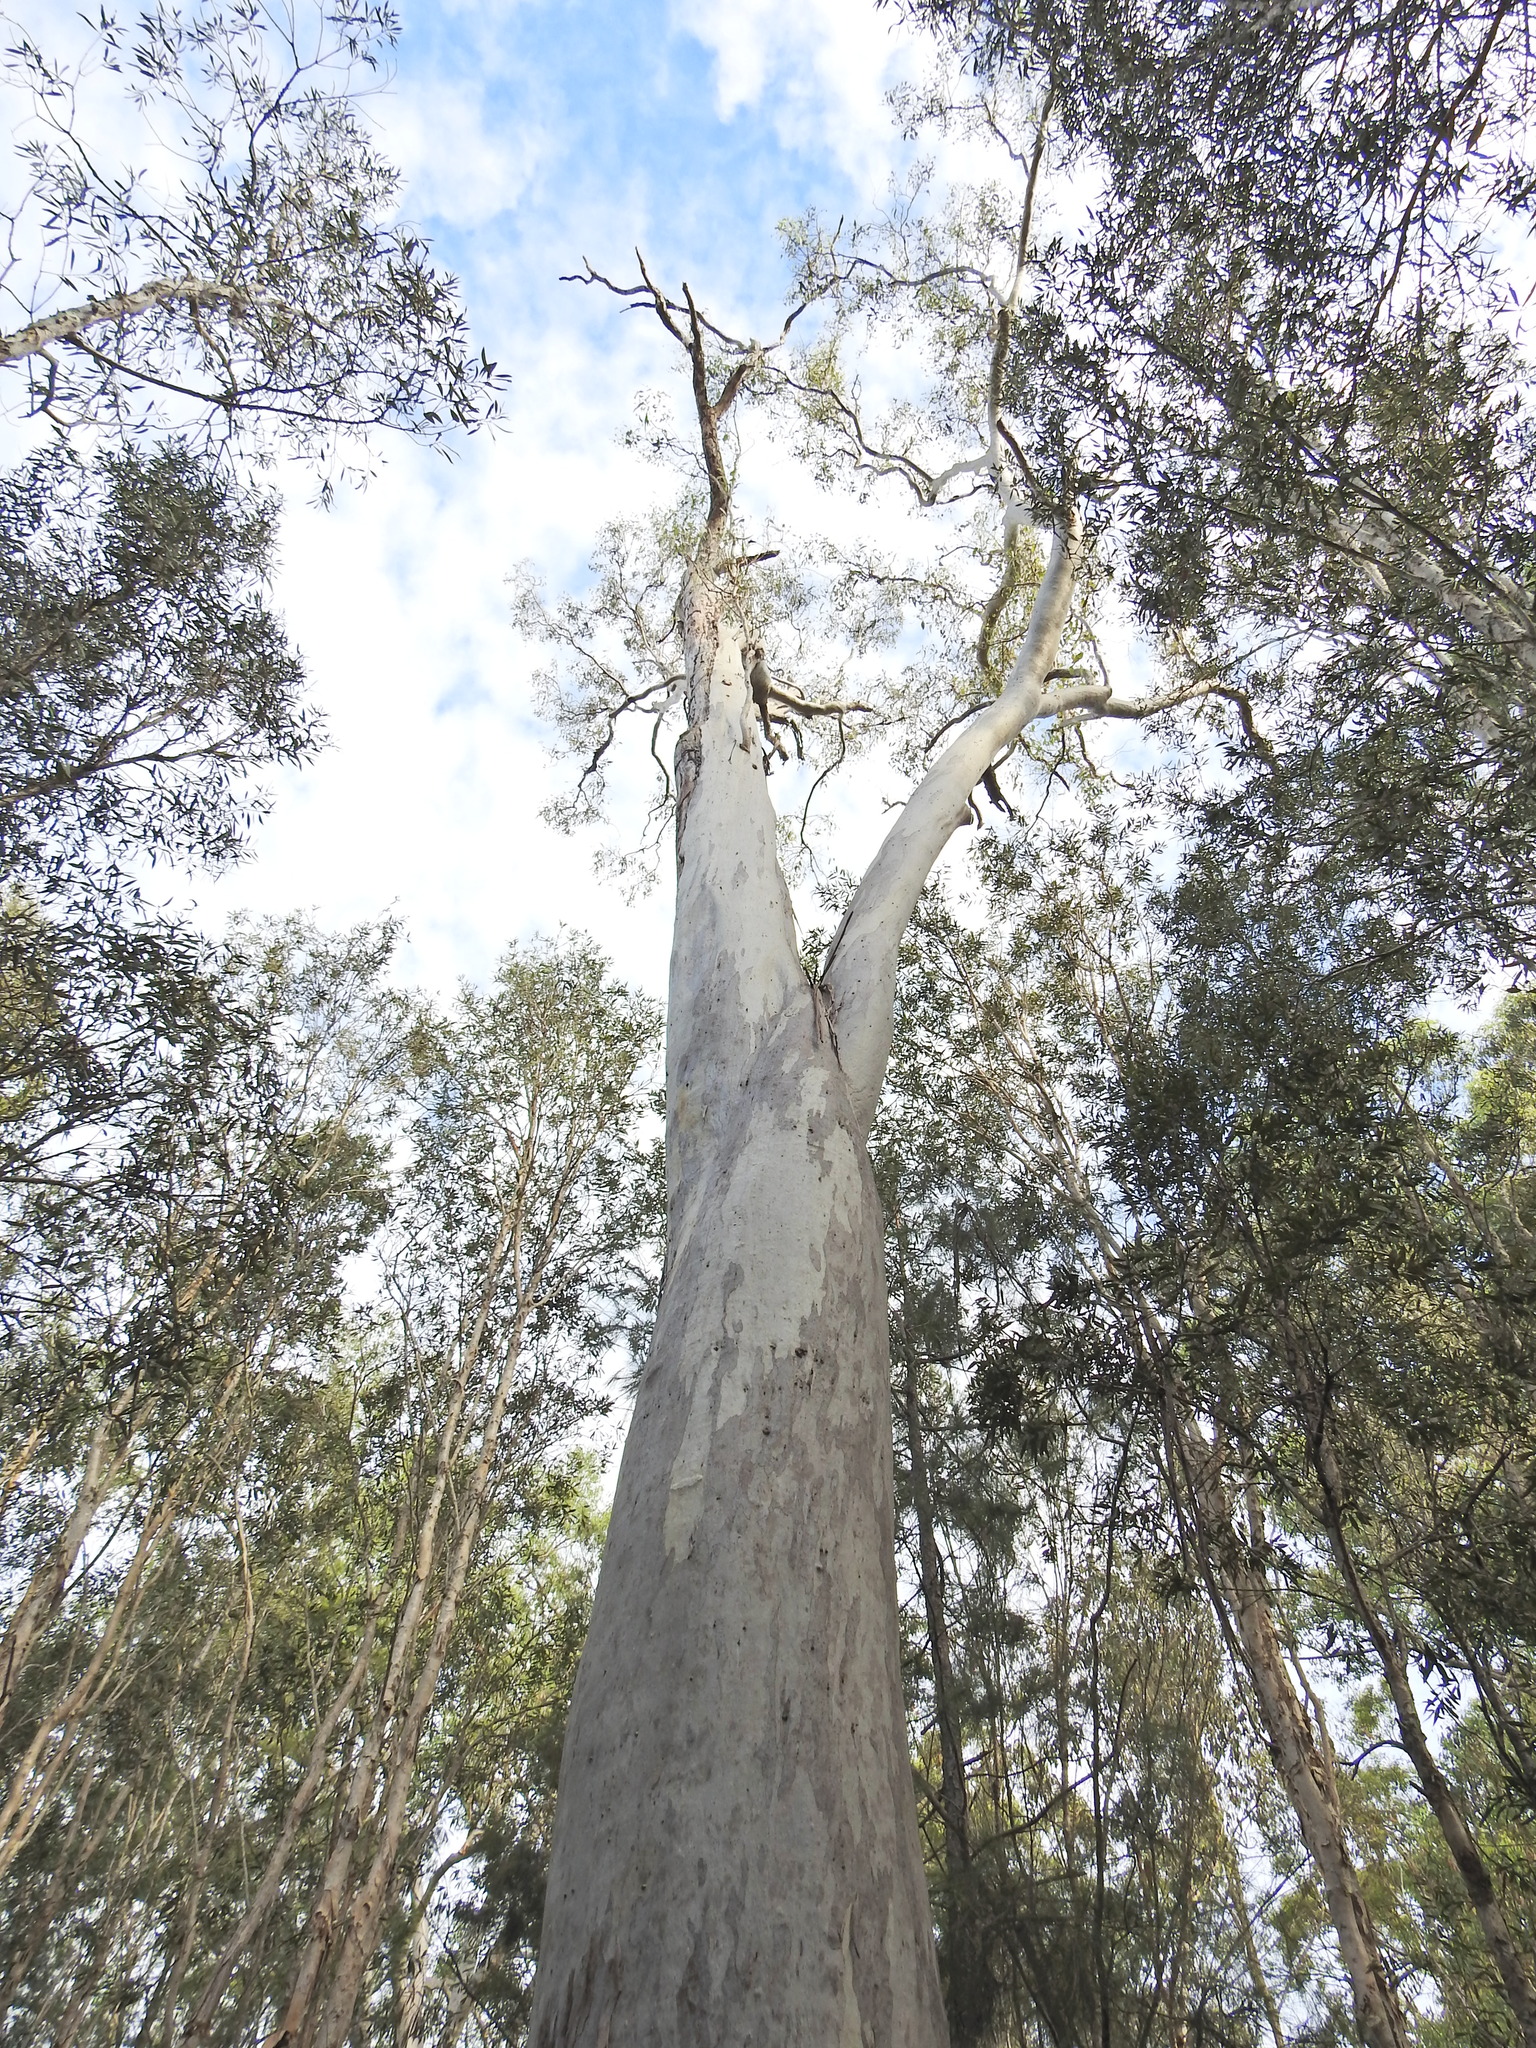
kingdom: Plantae
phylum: Tracheophyta
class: Magnoliopsida
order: Myrtales
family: Myrtaceae
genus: Eucalyptus
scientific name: Eucalyptus tereticornis
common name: Forest redgum
